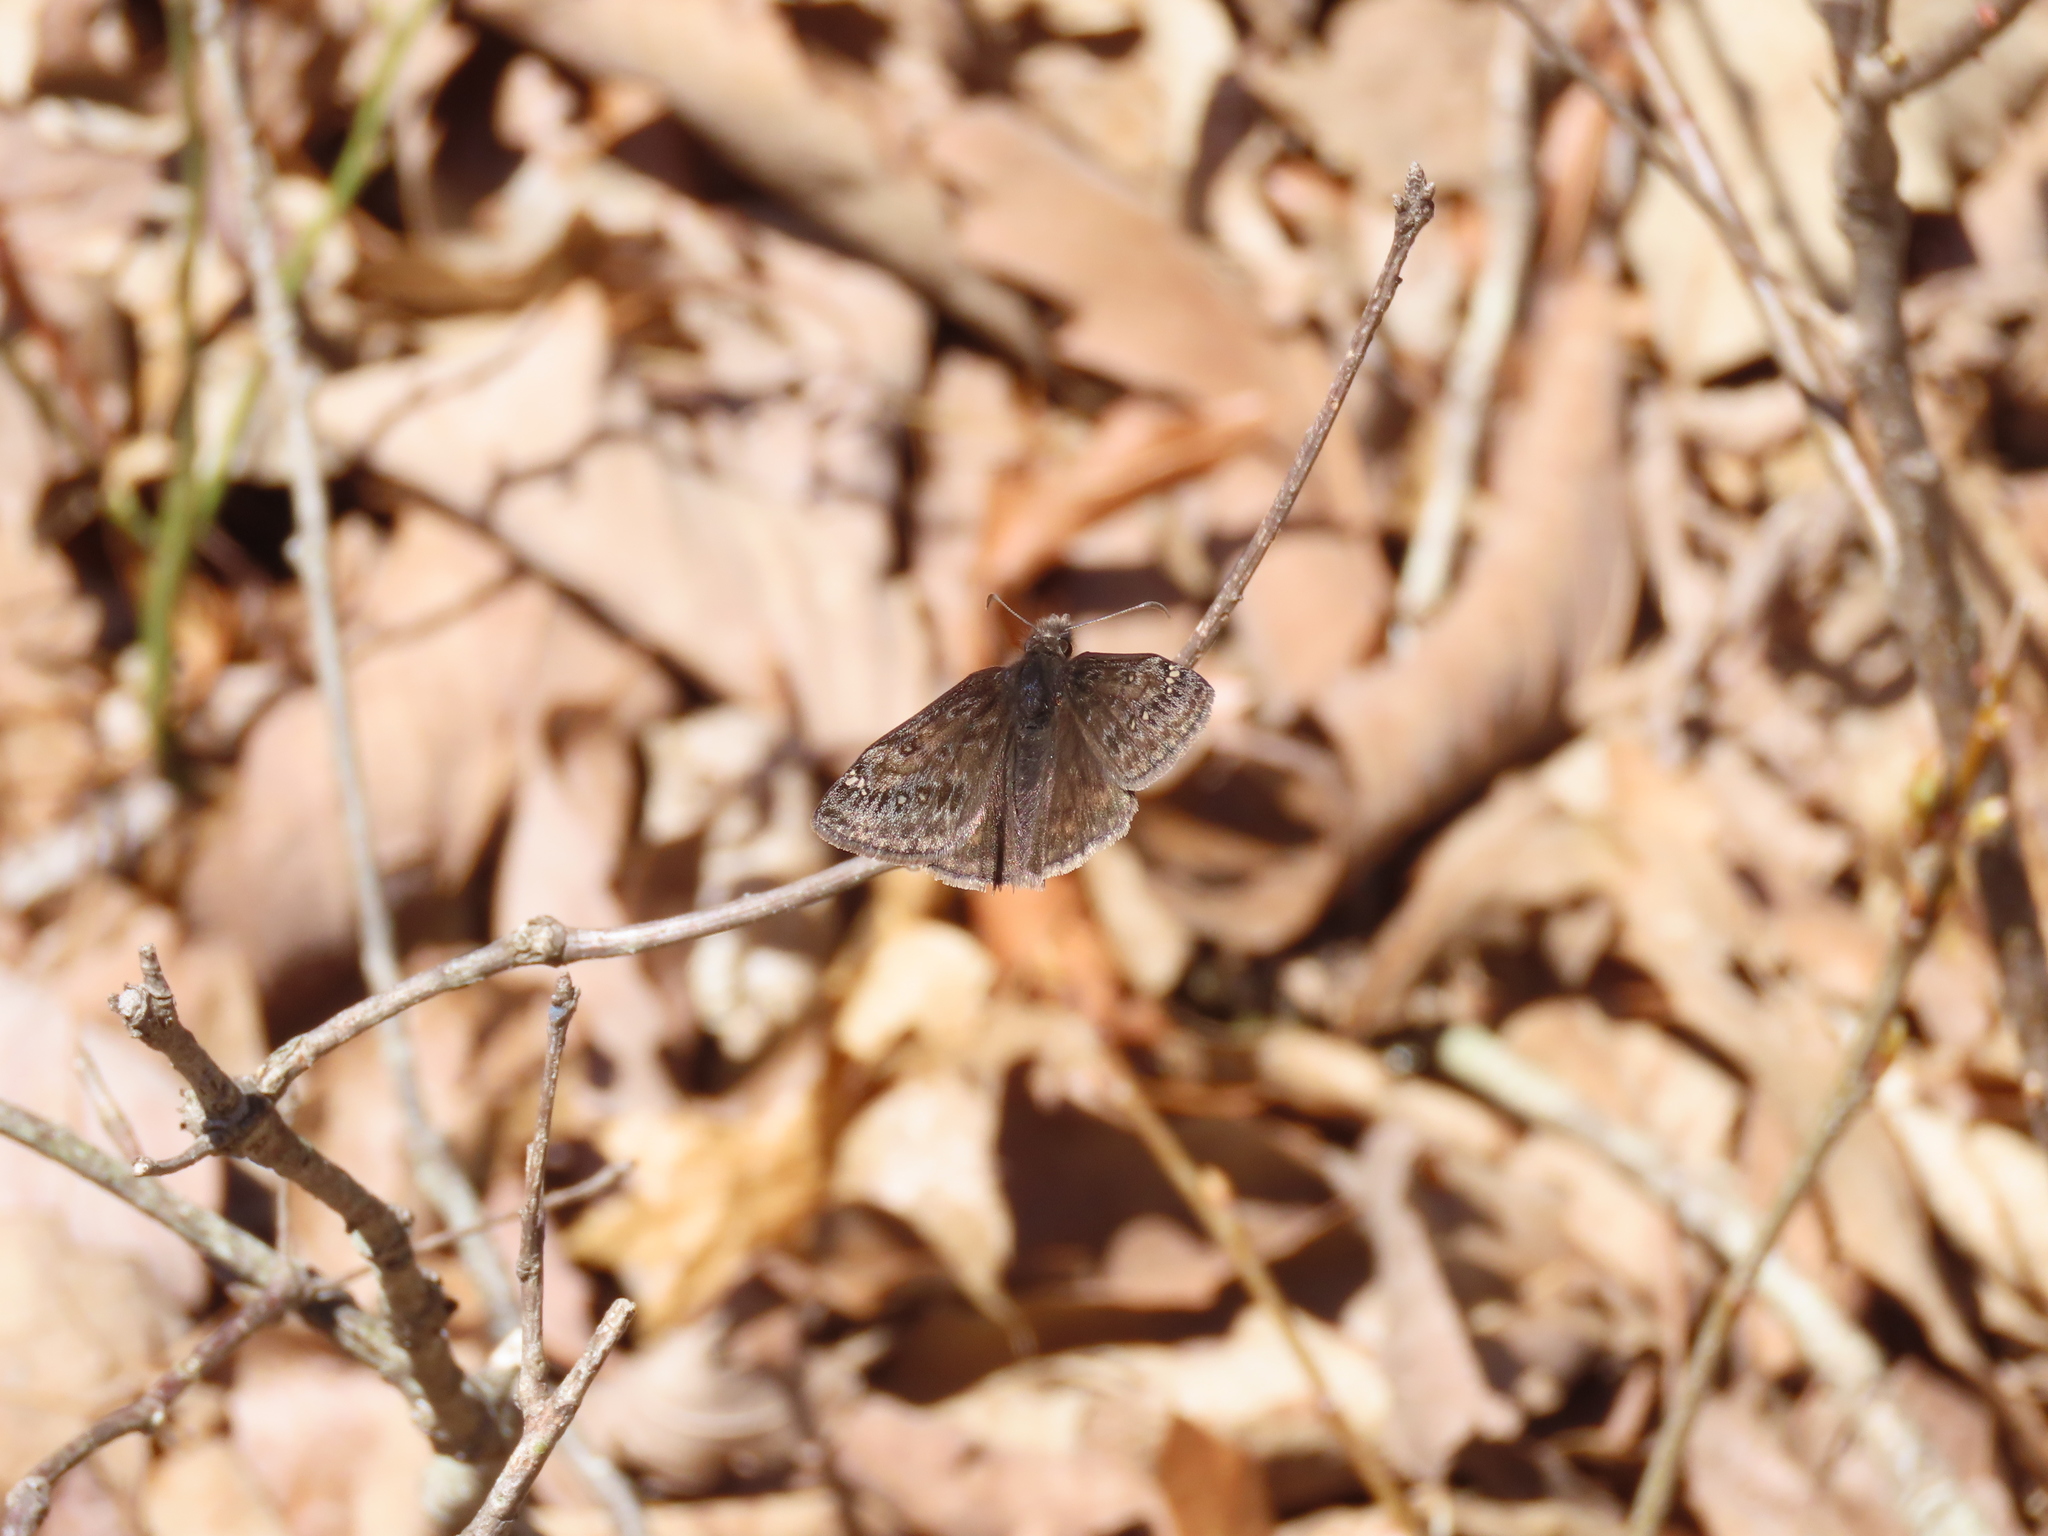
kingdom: Animalia
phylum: Arthropoda
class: Insecta
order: Lepidoptera
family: Hesperiidae
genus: Erynnis
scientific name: Erynnis juvenalis
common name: Juvenal's duskywing
